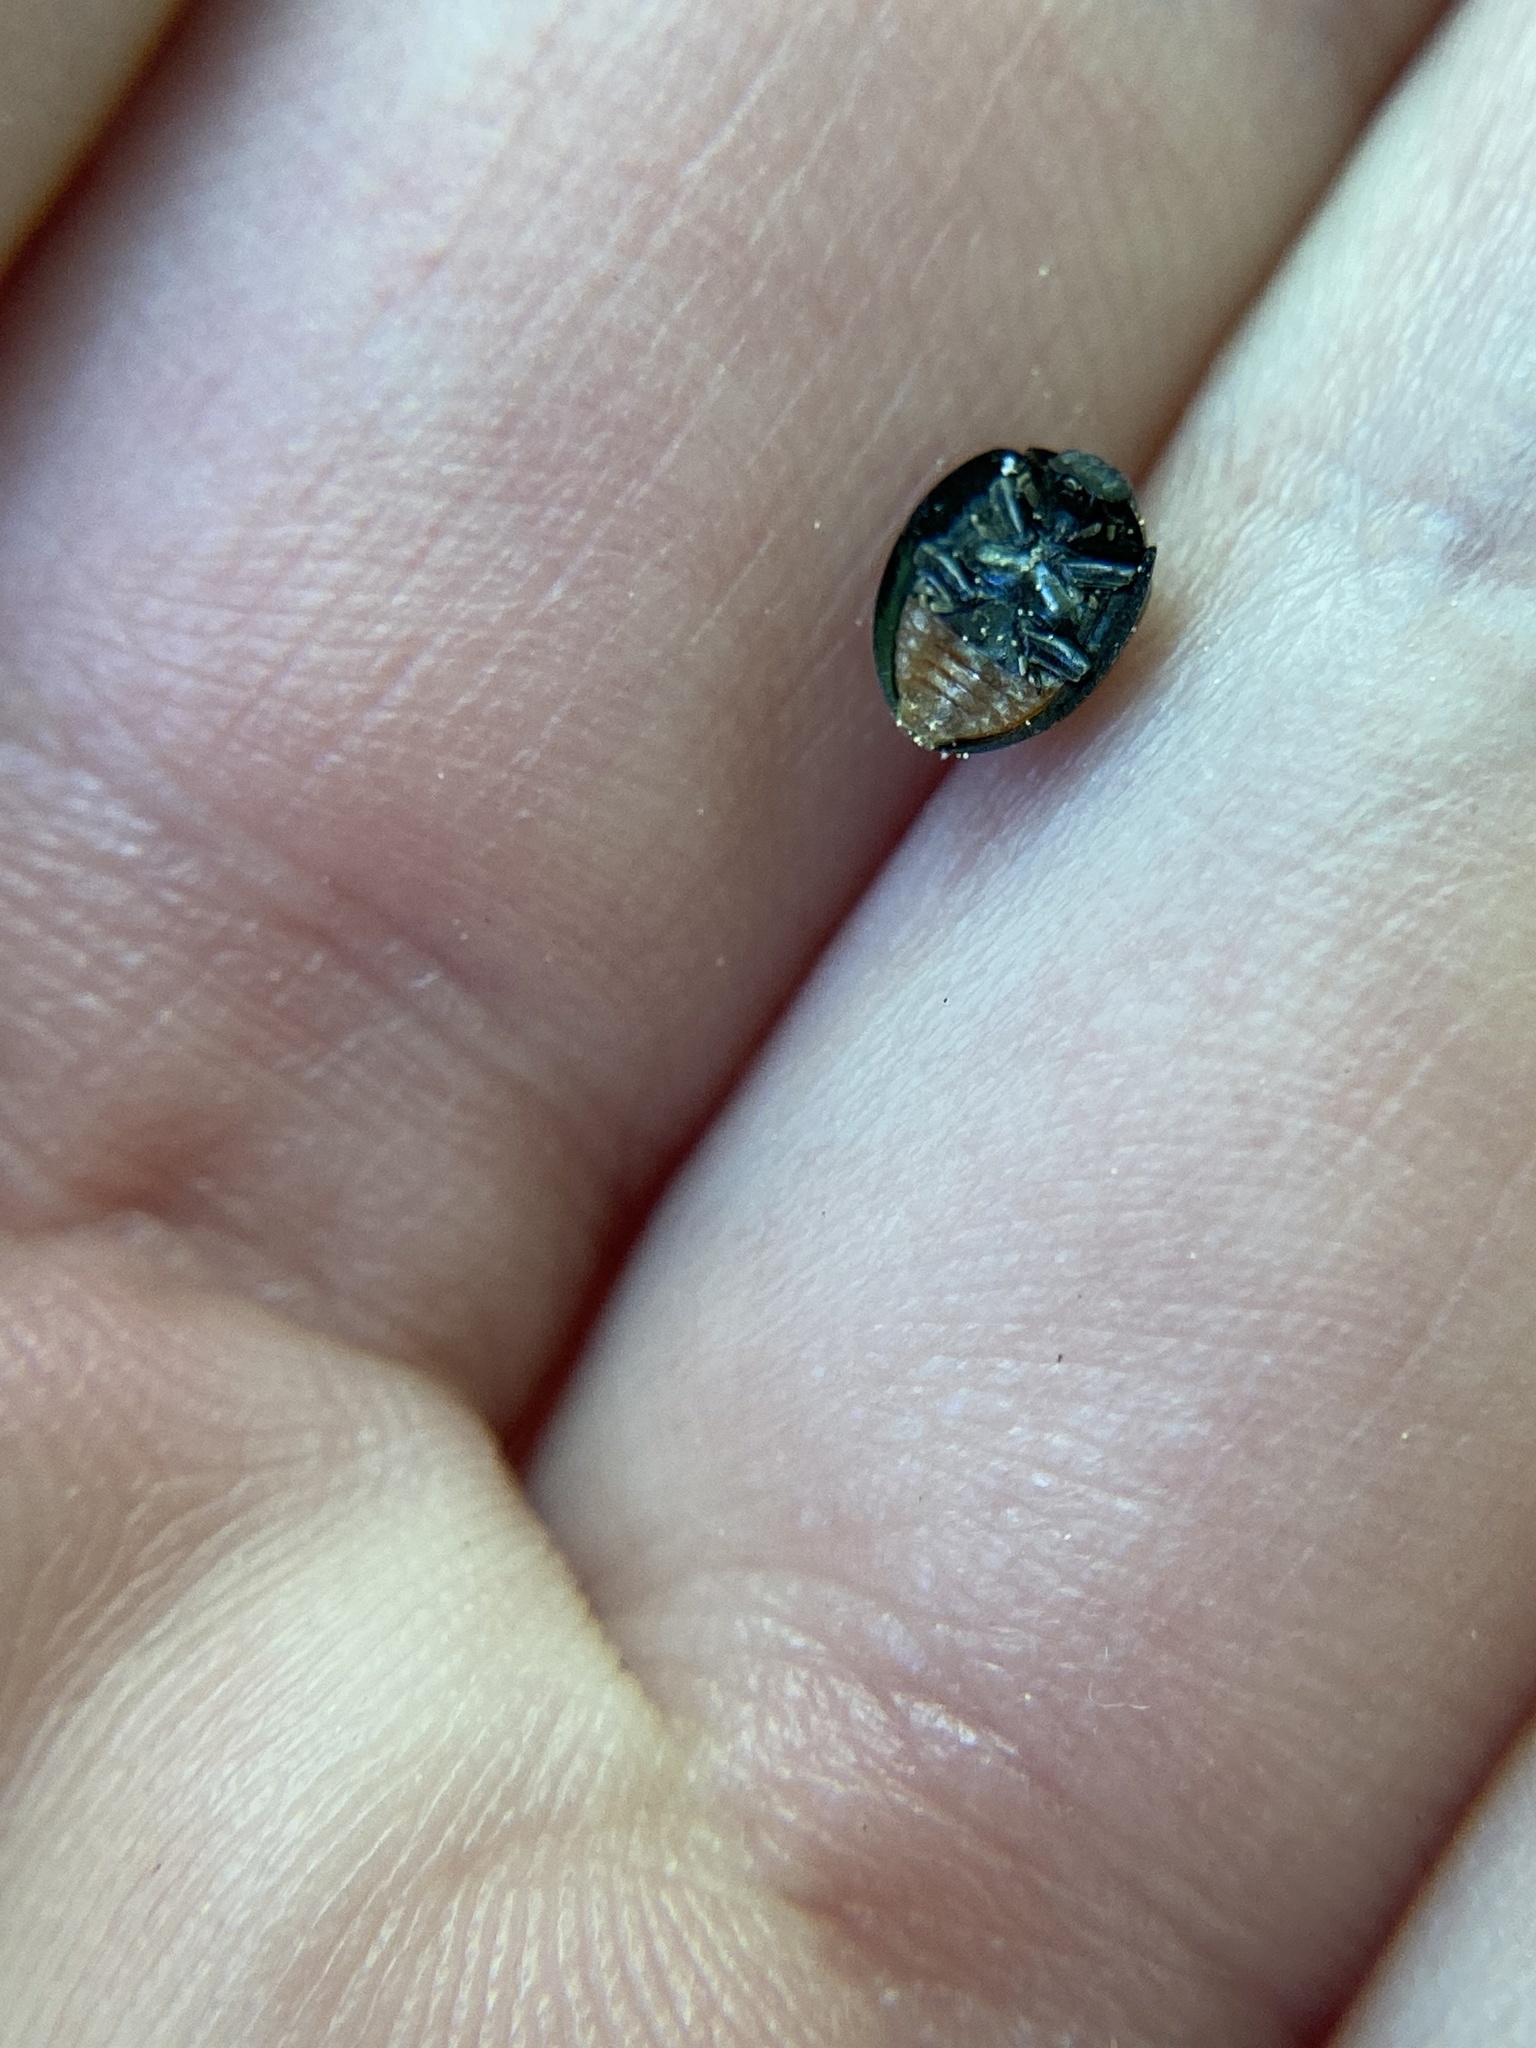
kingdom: Animalia
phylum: Arthropoda
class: Insecta
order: Coleoptera
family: Coccinellidae
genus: Chilocorus
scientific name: Chilocorus stigma
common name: Twicestabbed lady beetle
